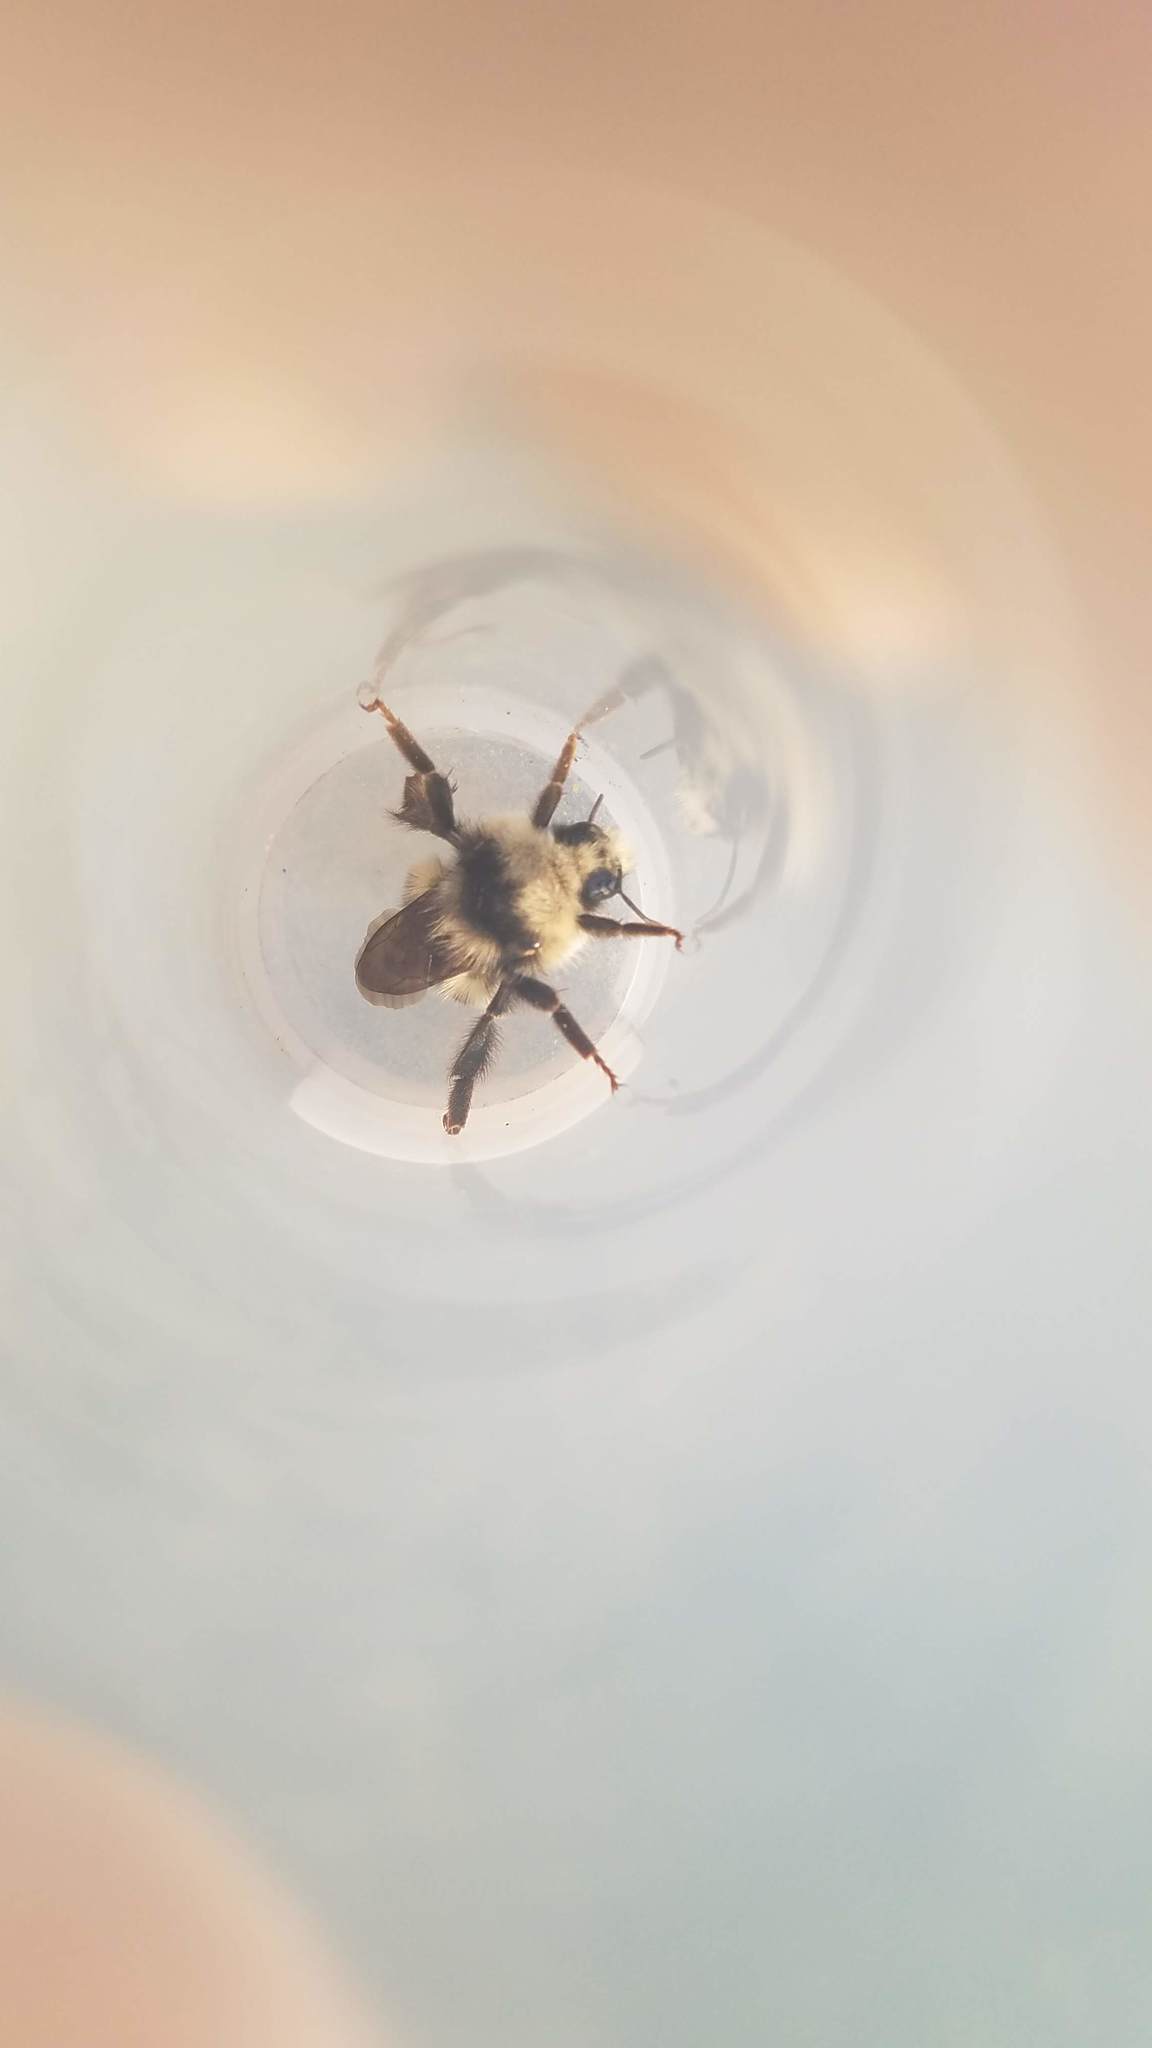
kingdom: Animalia
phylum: Arthropoda
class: Insecta
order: Hymenoptera
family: Apidae
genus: Bombus
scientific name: Bombus vandykei
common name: Van dyke bumble bee
